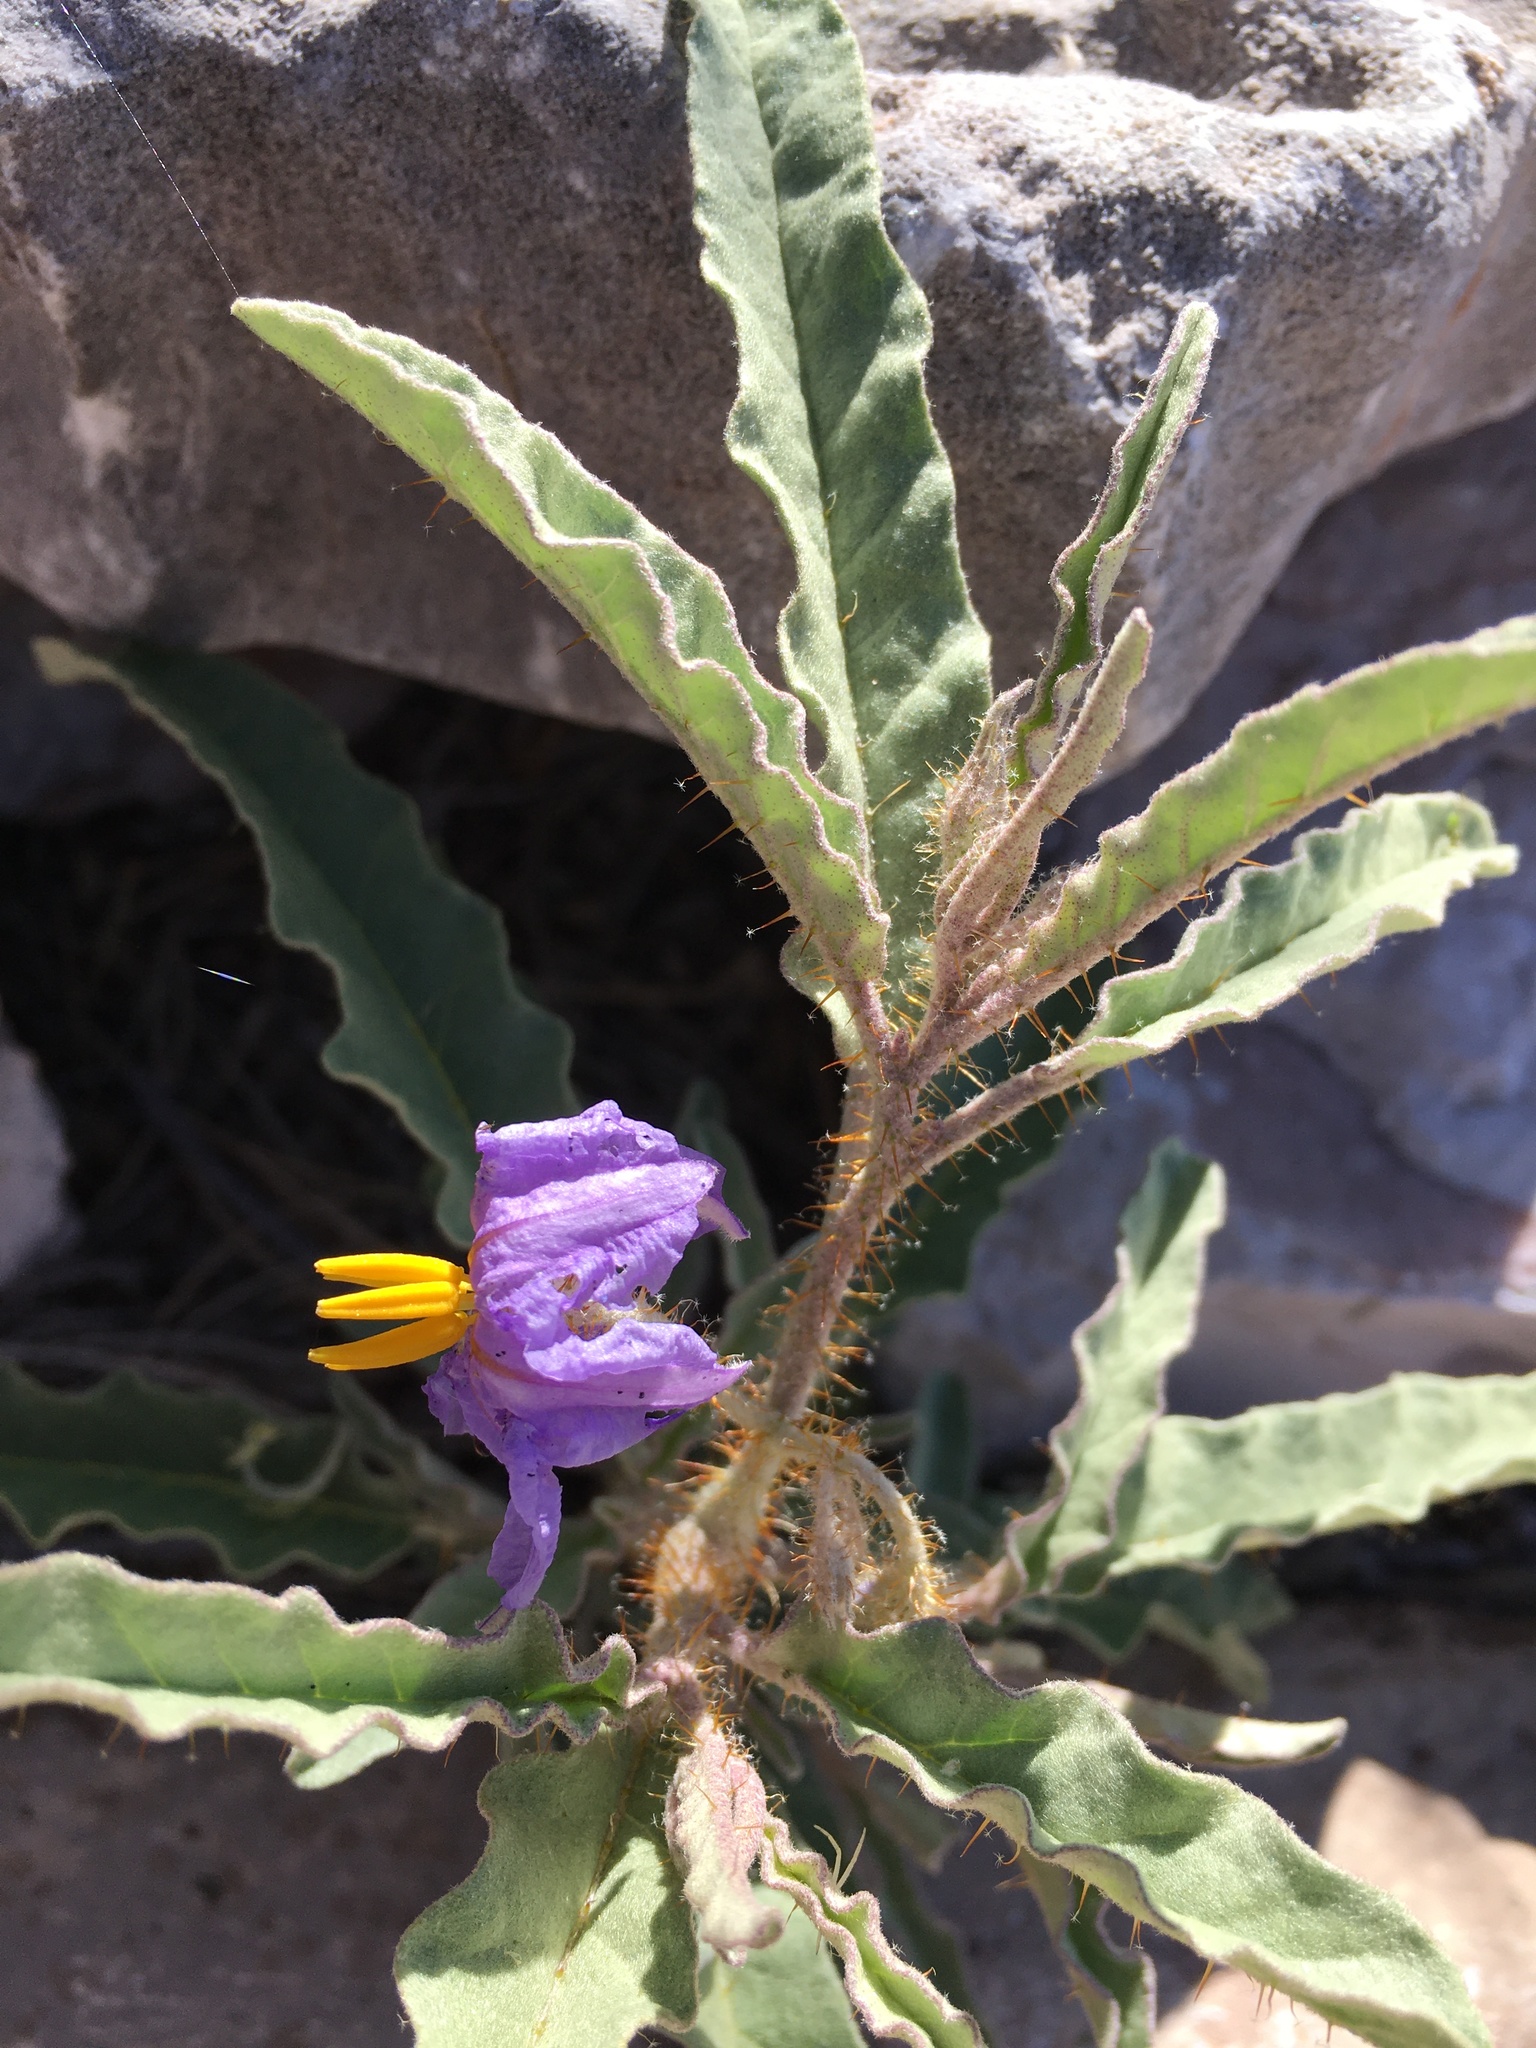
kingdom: Plantae
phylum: Tracheophyta
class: Magnoliopsida
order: Solanales
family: Solanaceae
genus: Solanum
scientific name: Solanum elaeagnifolium
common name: Silverleaf nightshade
